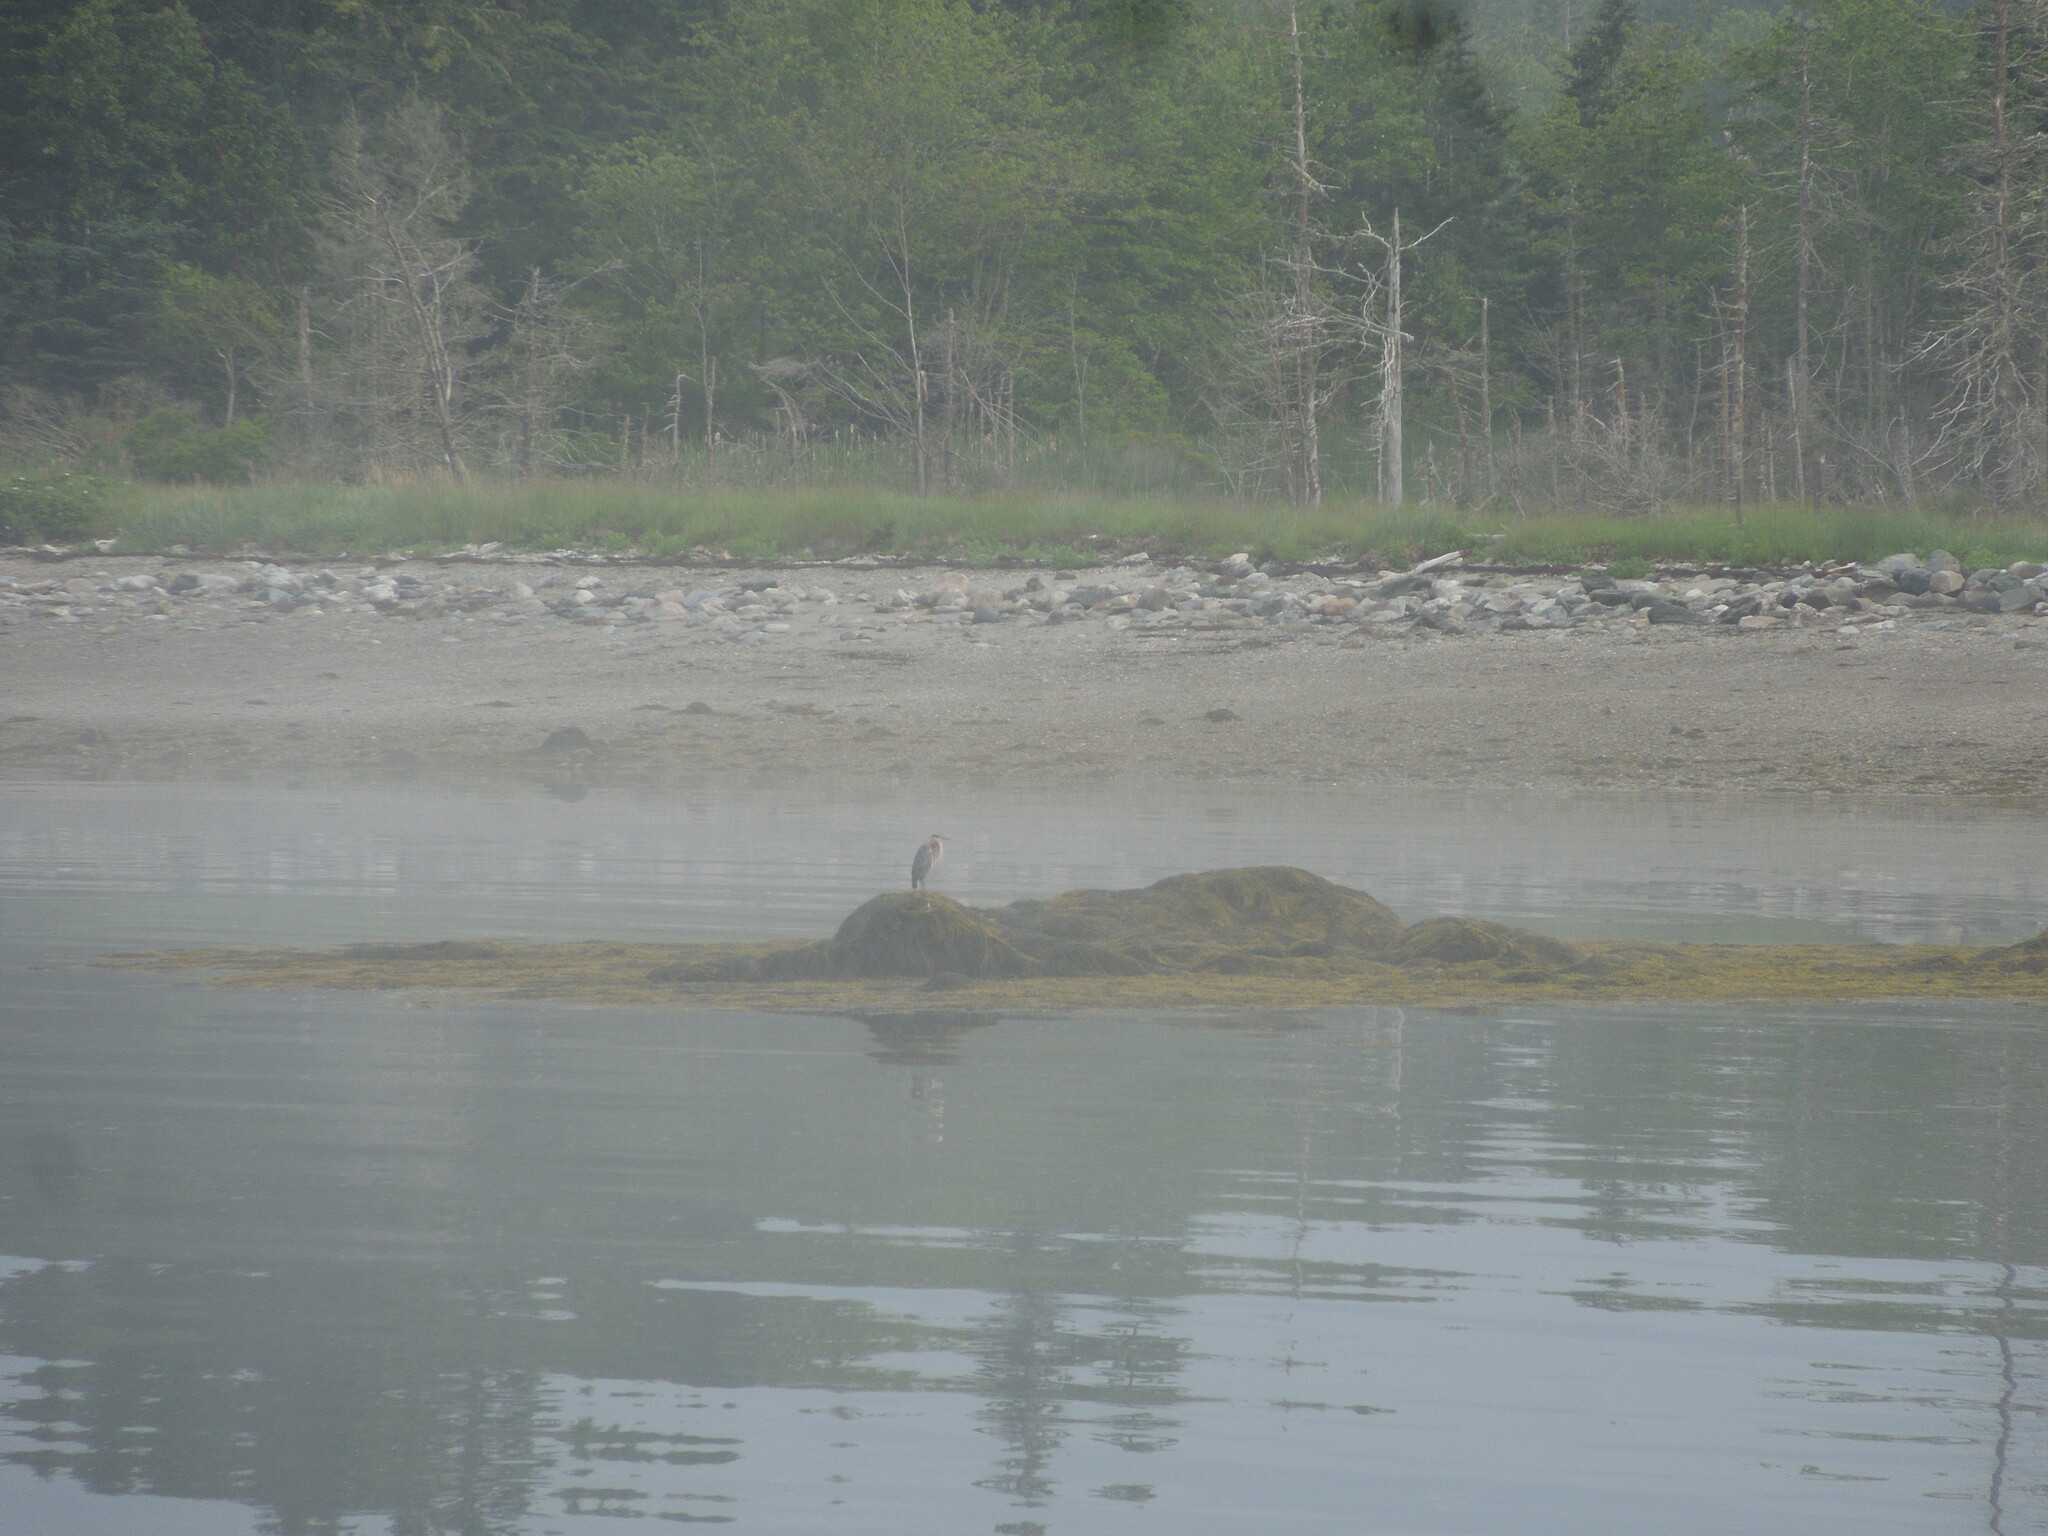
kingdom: Animalia
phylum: Chordata
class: Aves
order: Pelecaniformes
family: Ardeidae
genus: Ardea
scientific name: Ardea herodias
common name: Great blue heron
